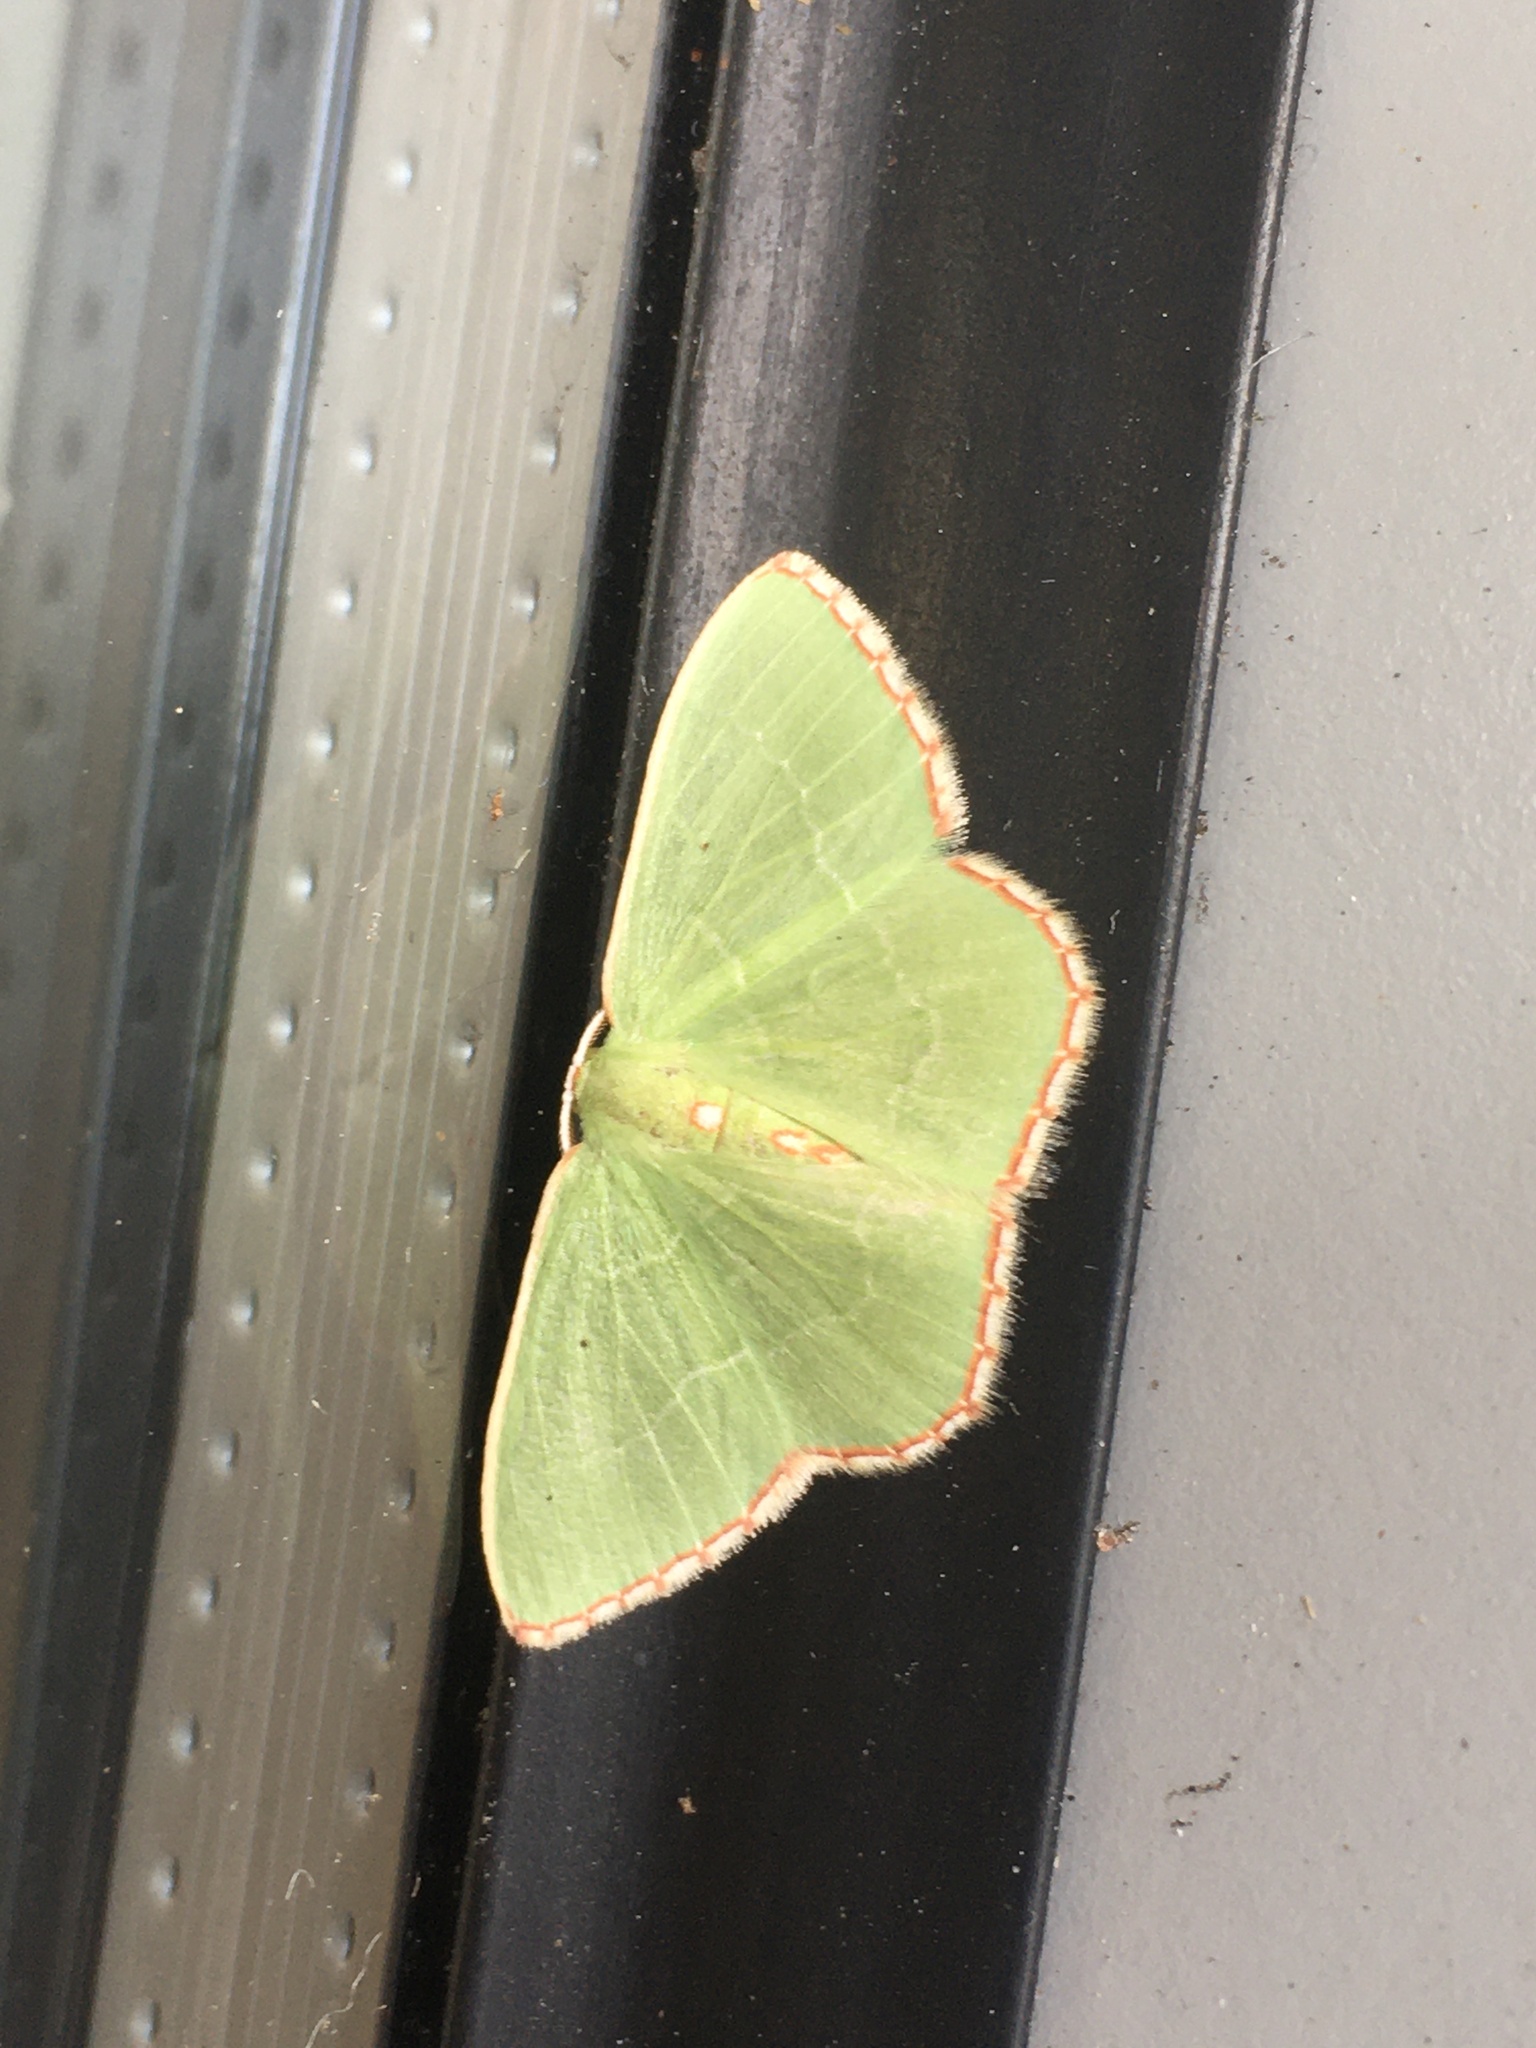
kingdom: Animalia
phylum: Arthropoda
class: Insecta
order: Lepidoptera
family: Geometridae
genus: Nemoria
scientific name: Nemoria lixaria
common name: Red-bordered emerald
